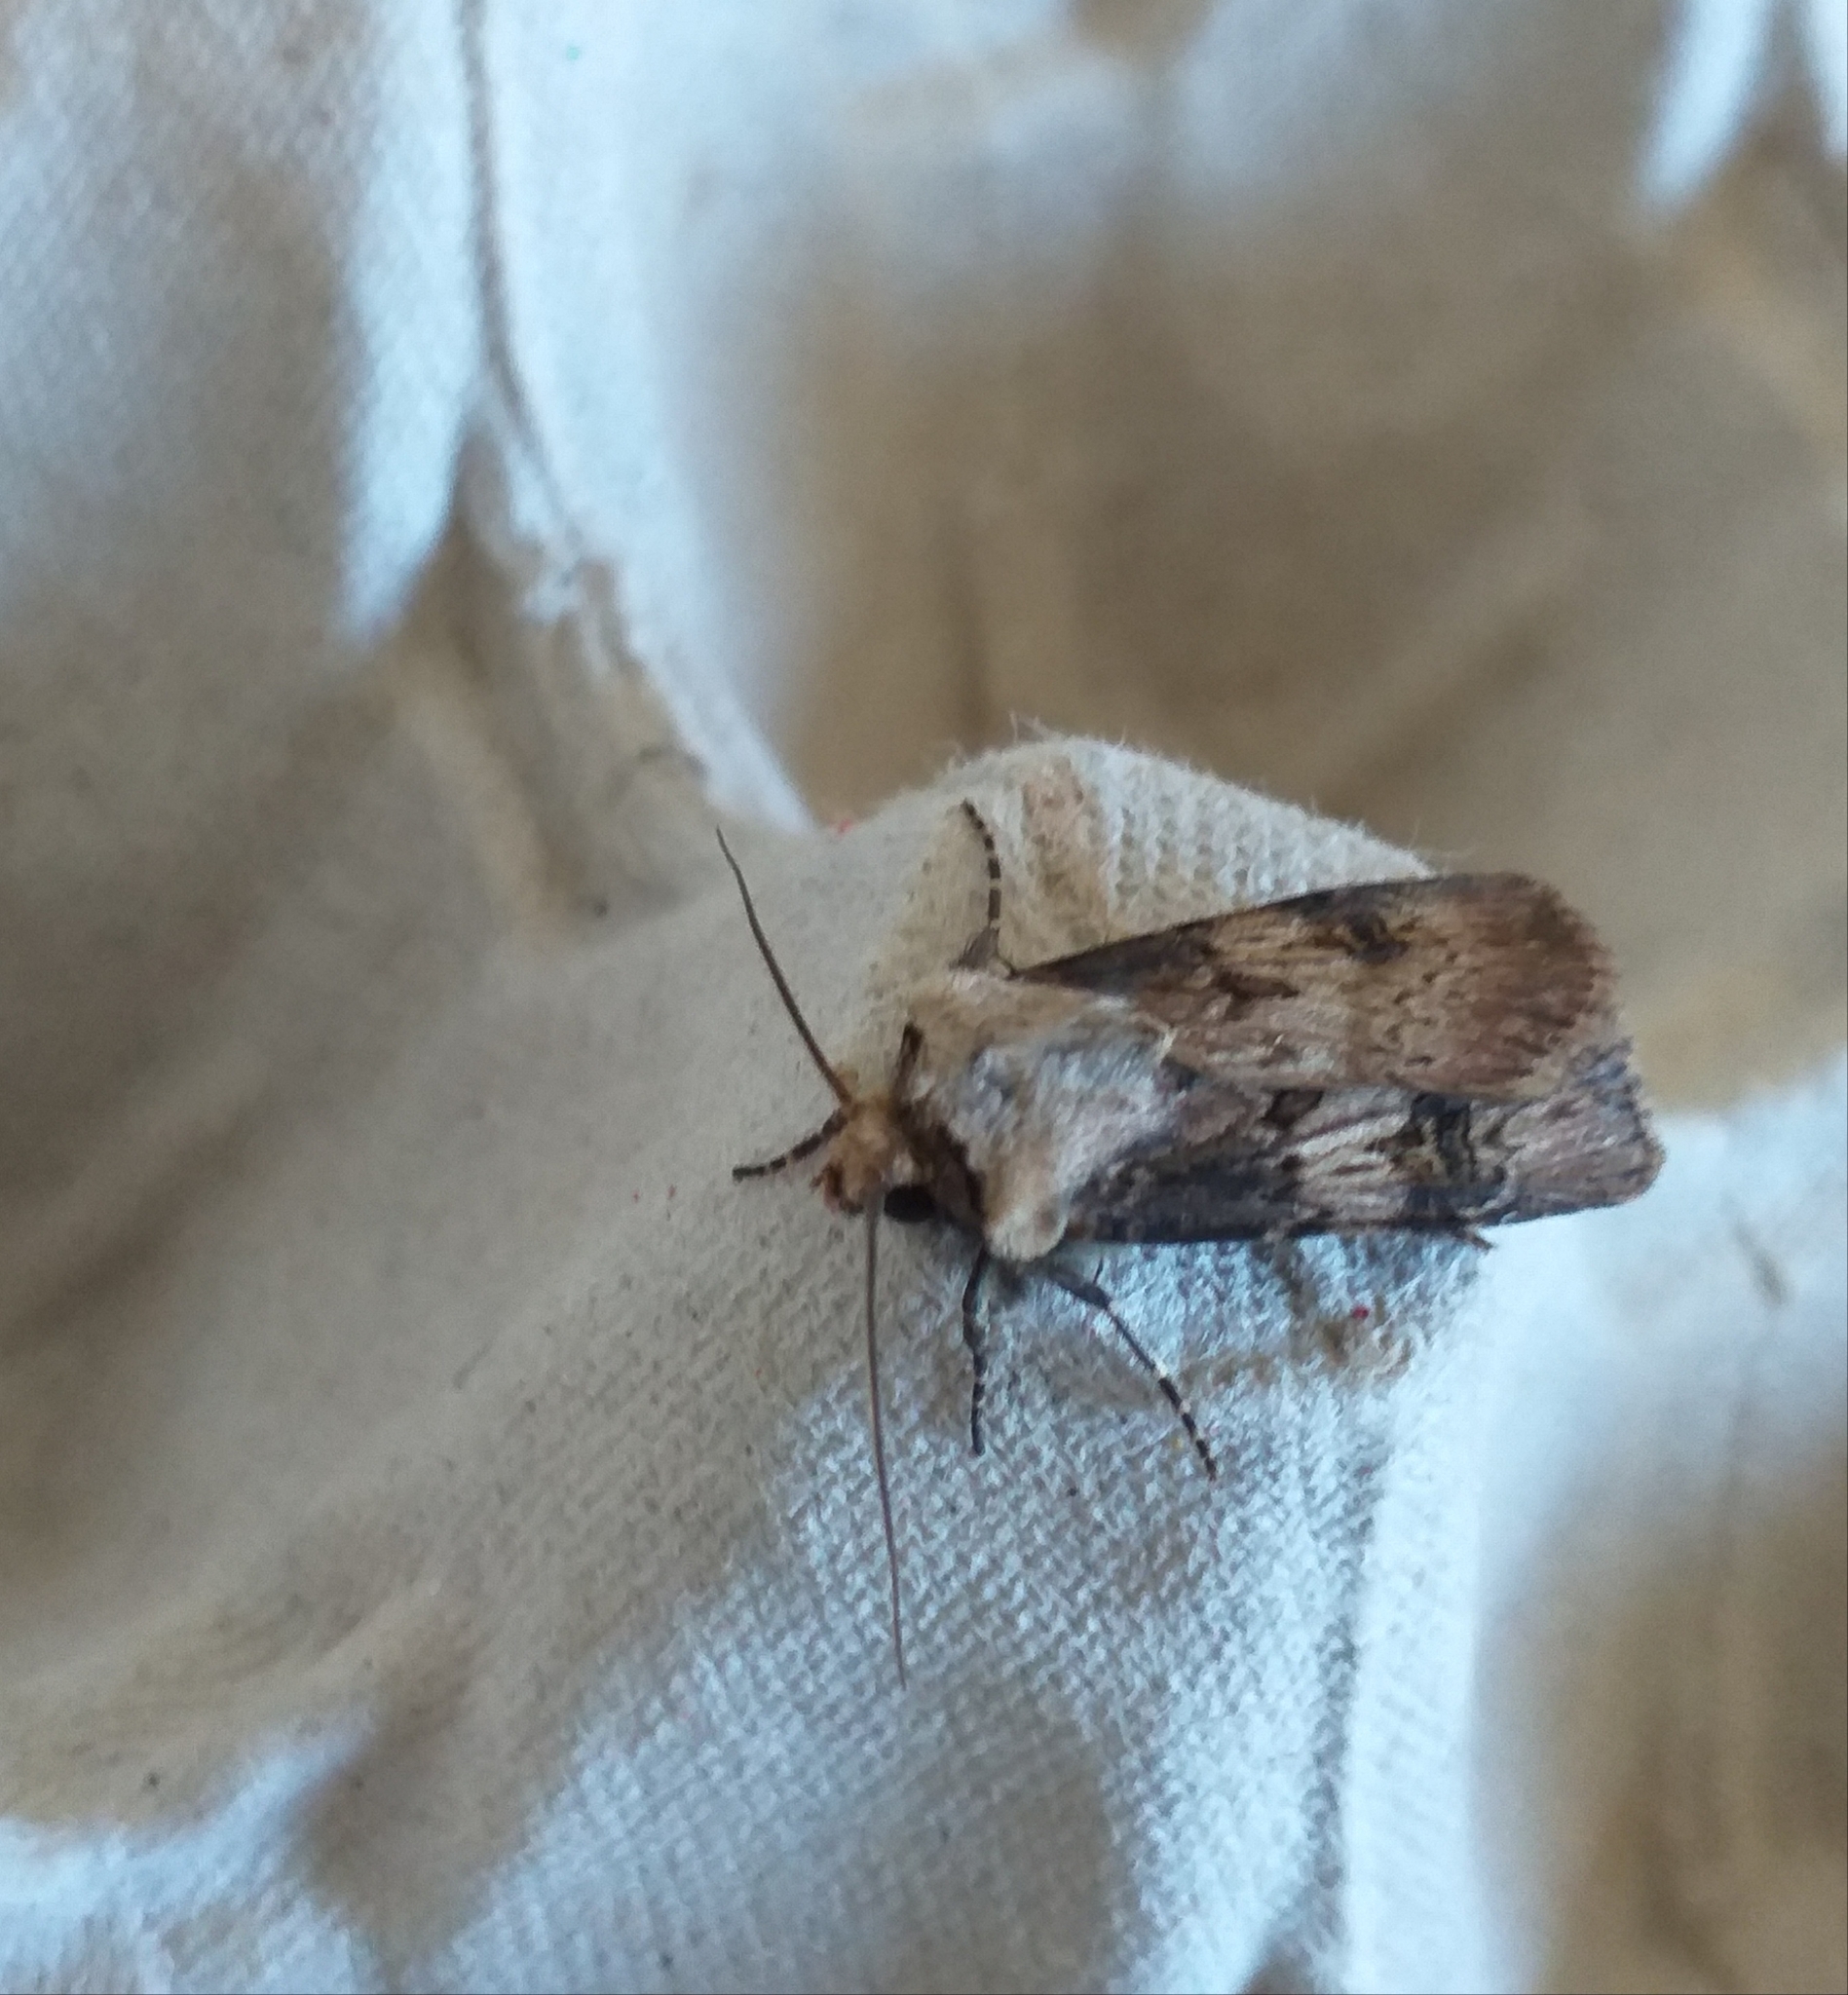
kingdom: Animalia
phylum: Arthropoda
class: Insecta
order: Lepidoptera
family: Noctuidae
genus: Agrotis
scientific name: Agrotis puta
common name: Shuttle-shaped dart
